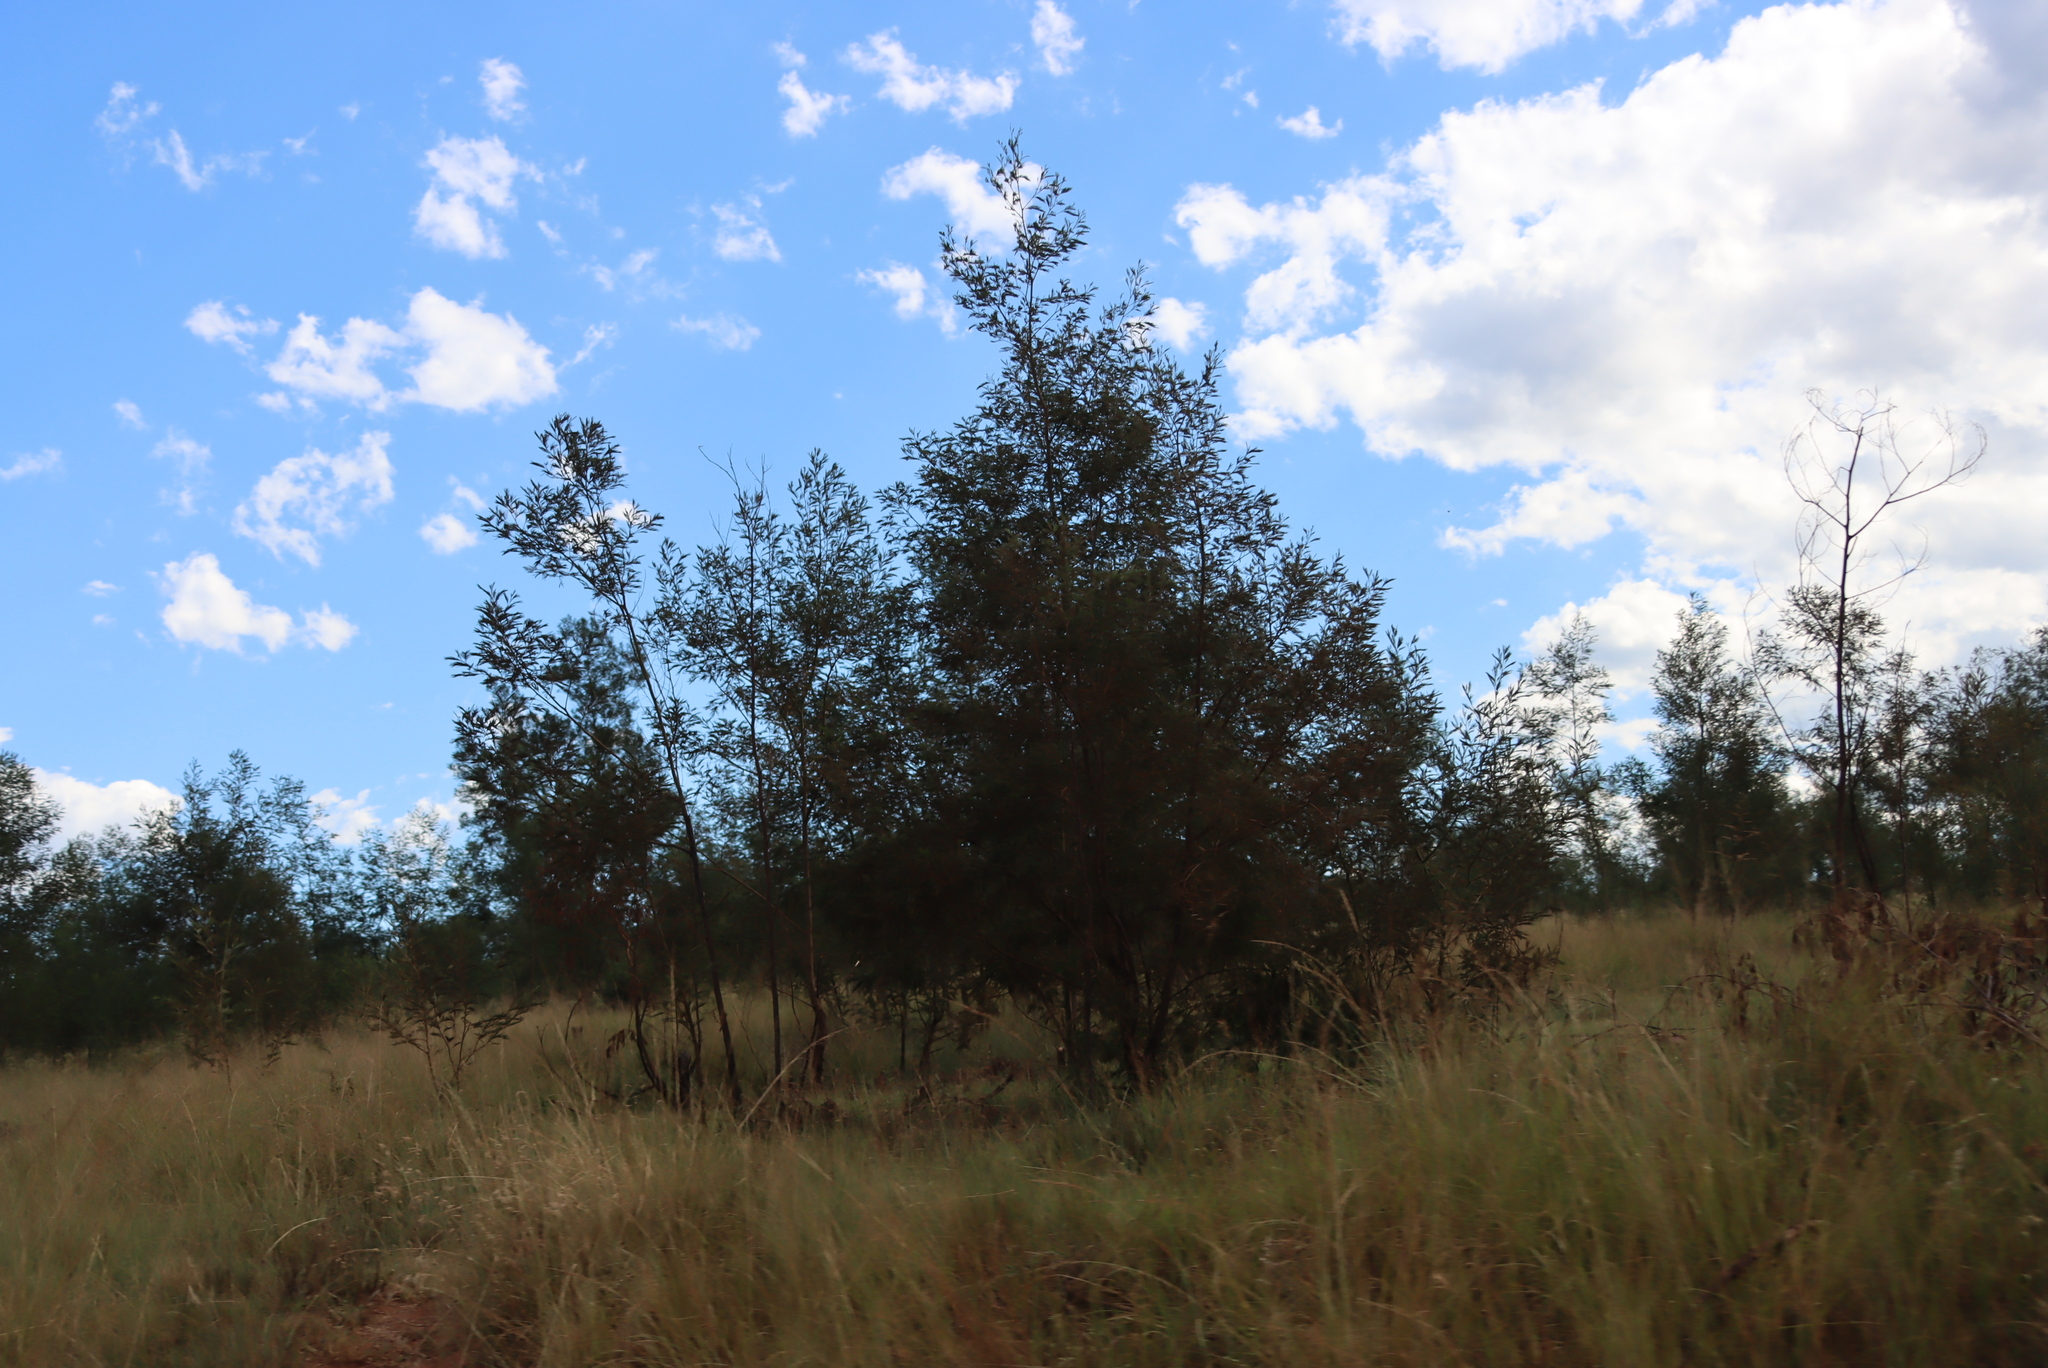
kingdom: Plantae
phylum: Tracheophyta
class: Magnoliopsida
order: Fabales
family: Fabaceae
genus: Acacia
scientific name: Acacia mearnsii
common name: Black wattle
